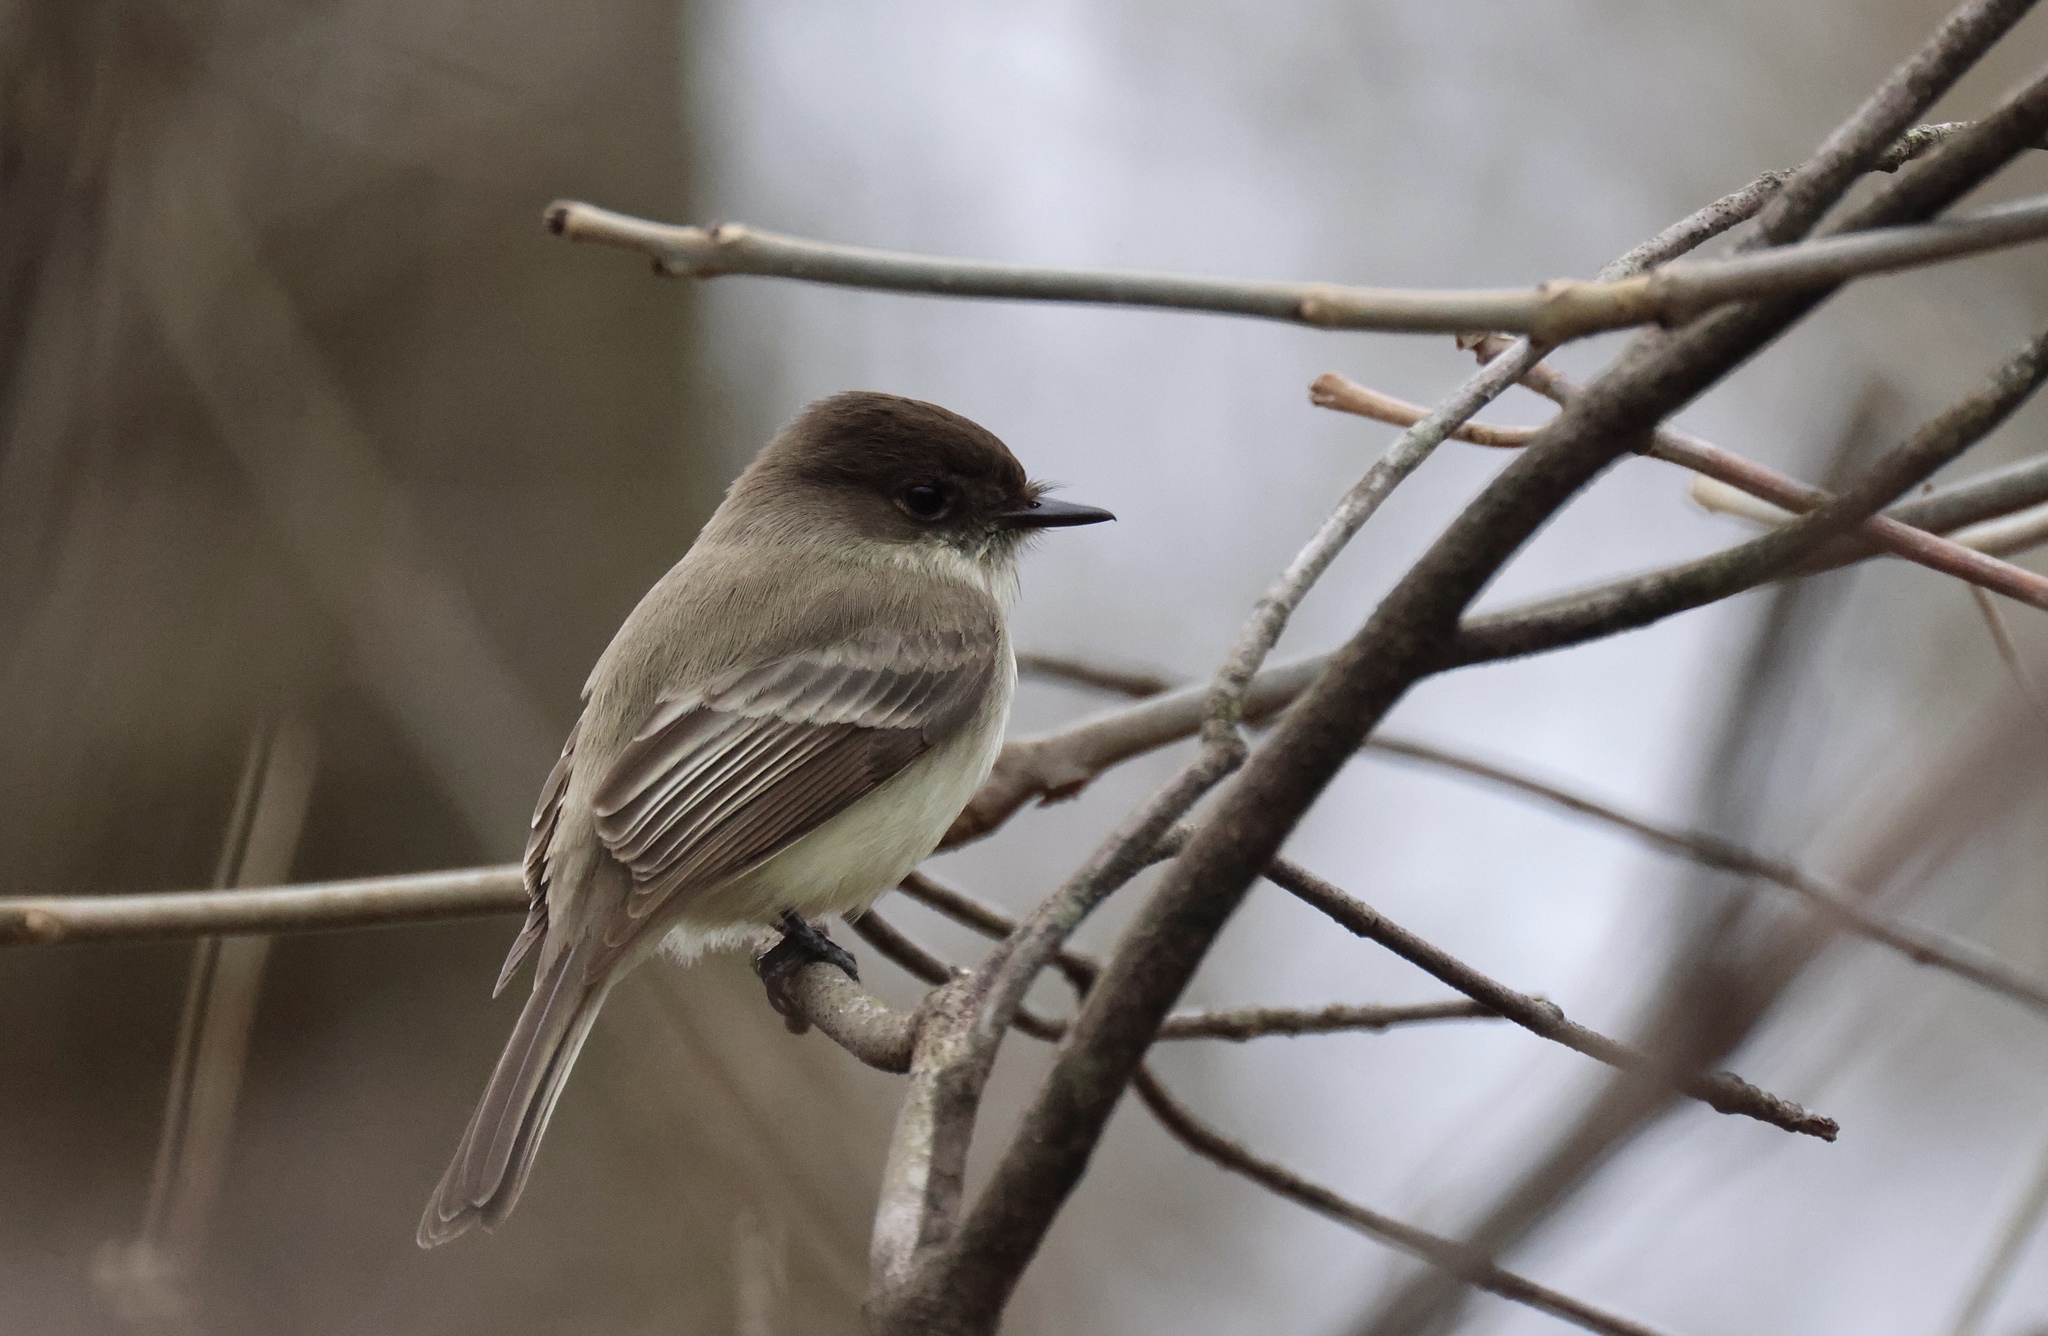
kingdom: Animalia
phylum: Chordata
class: Aves
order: Passeriformes
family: Tyrannidae
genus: Sayornis
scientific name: Sayornis phoebe
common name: Eastern phoebe
